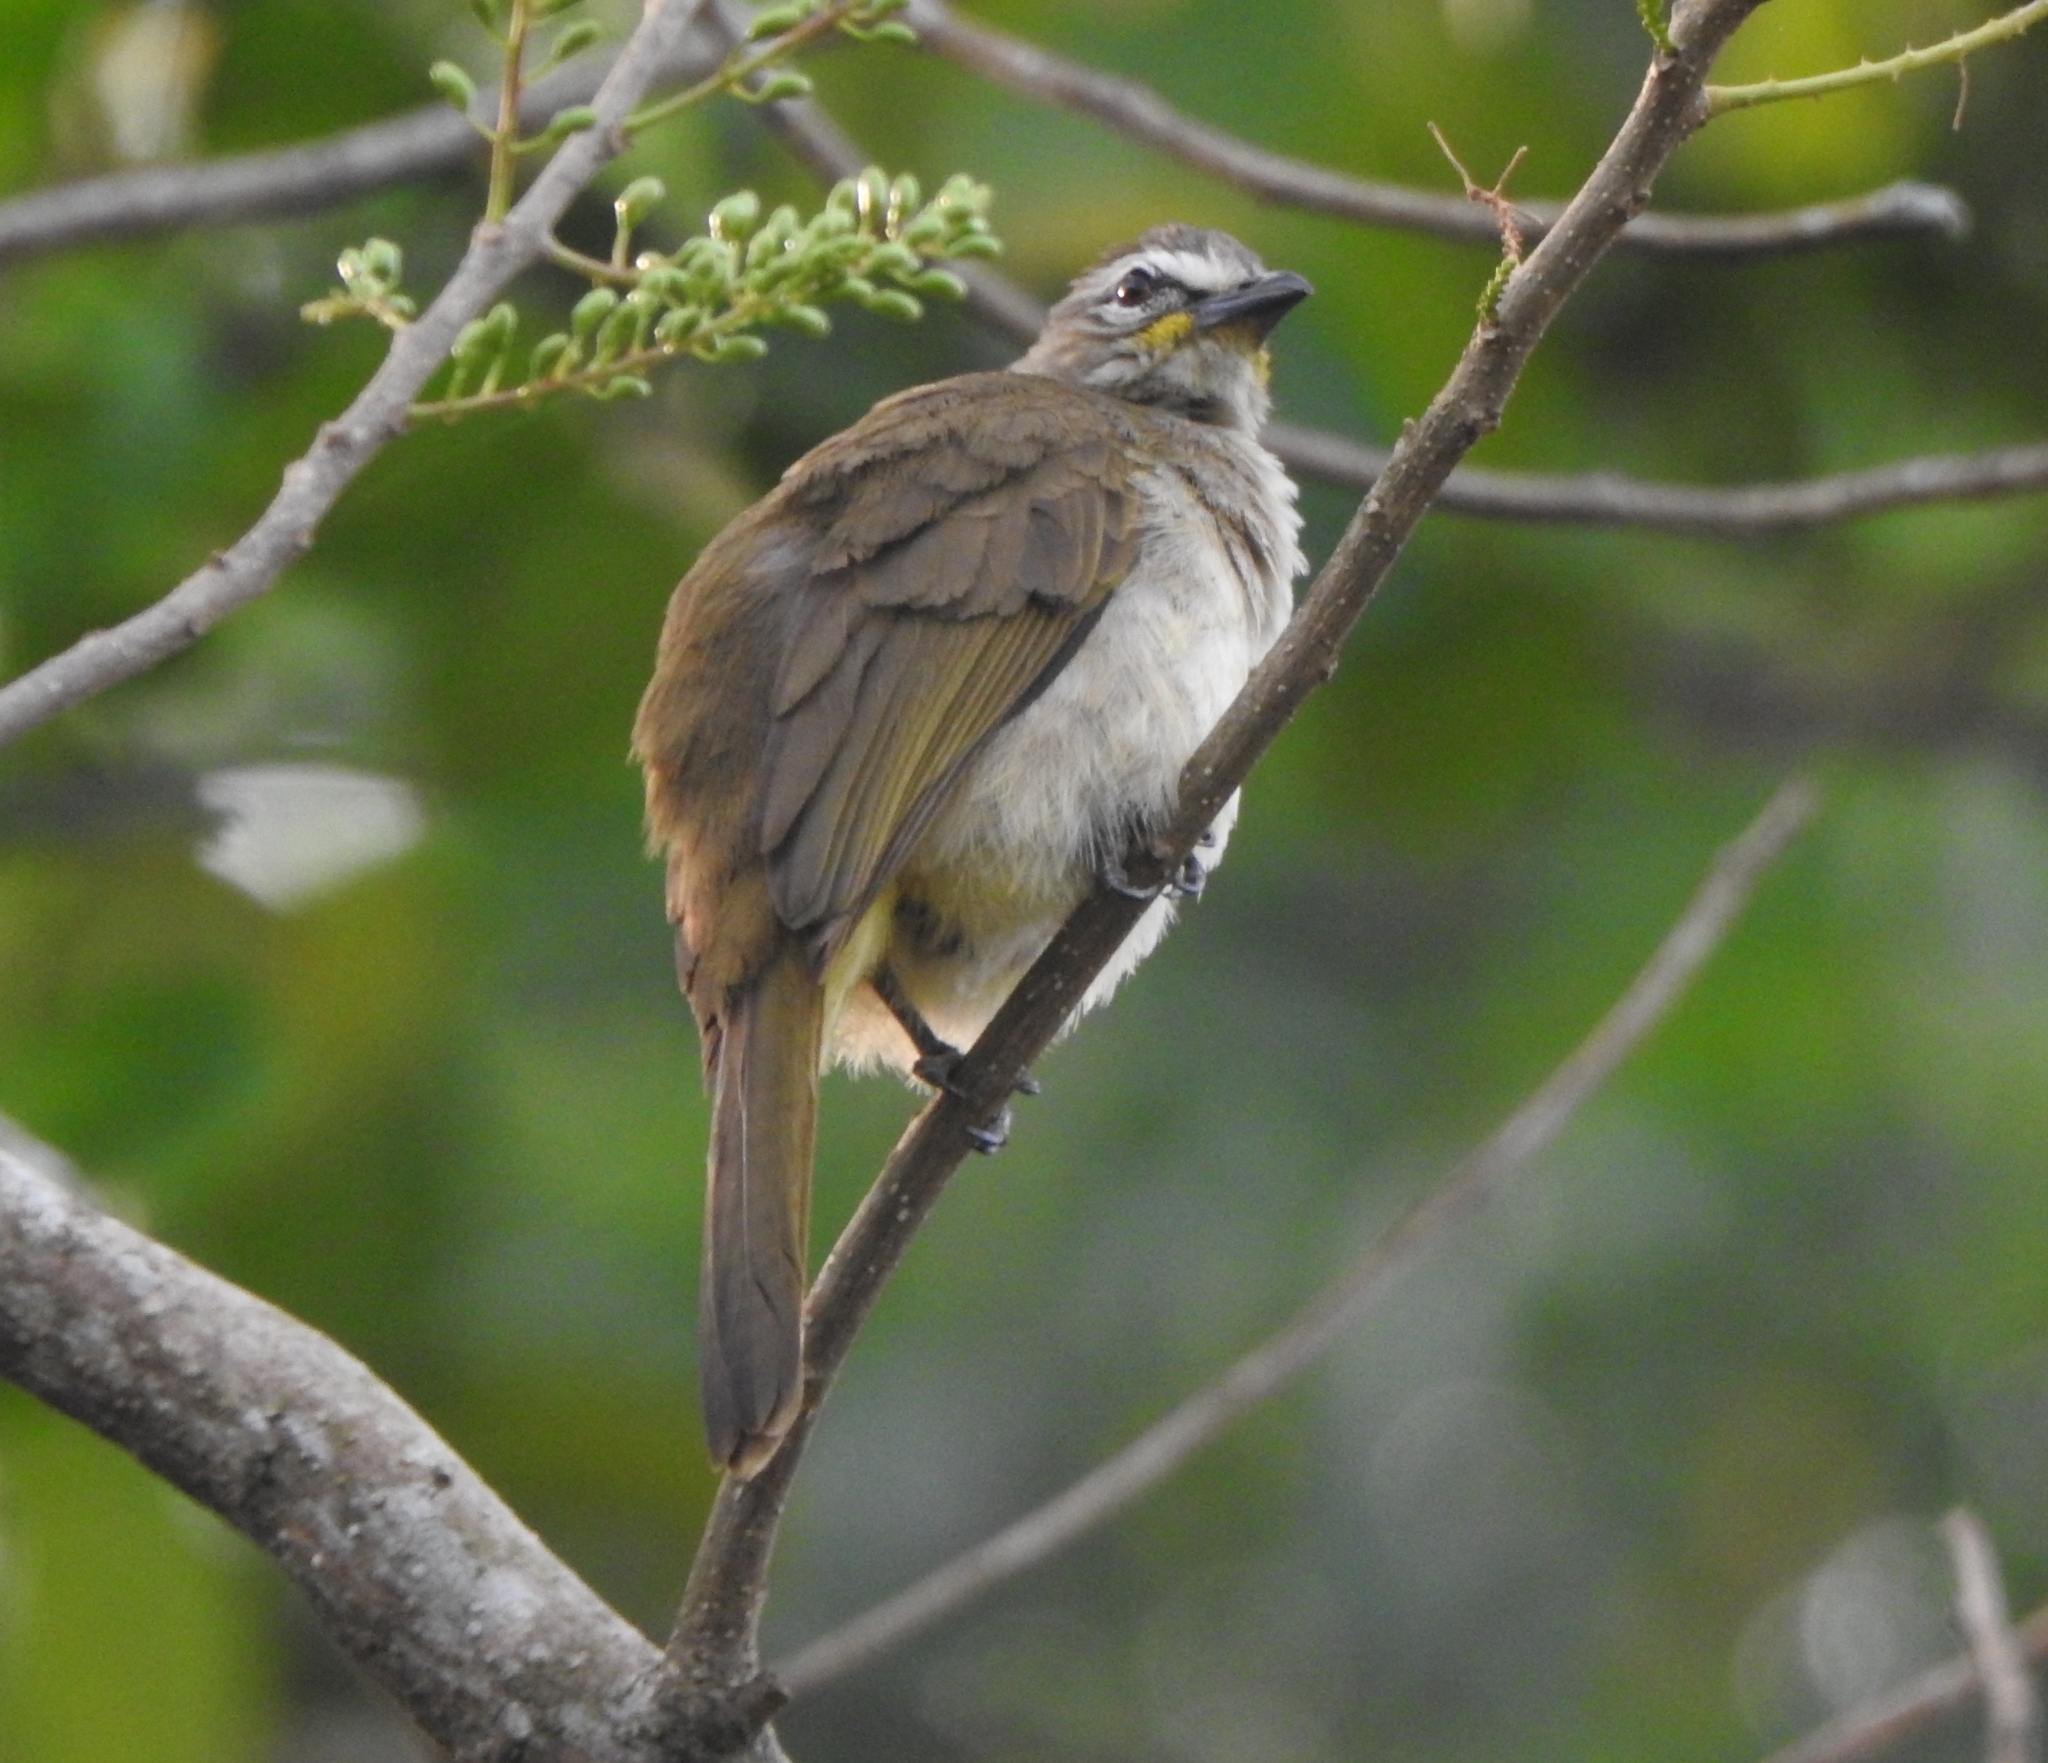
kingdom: Animalia
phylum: Chordata
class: Aves
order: Passeriformes
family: Pycnonotidae
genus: Pycnonotus
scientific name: Pycnonotus luteolus
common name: White-browed bulbul
